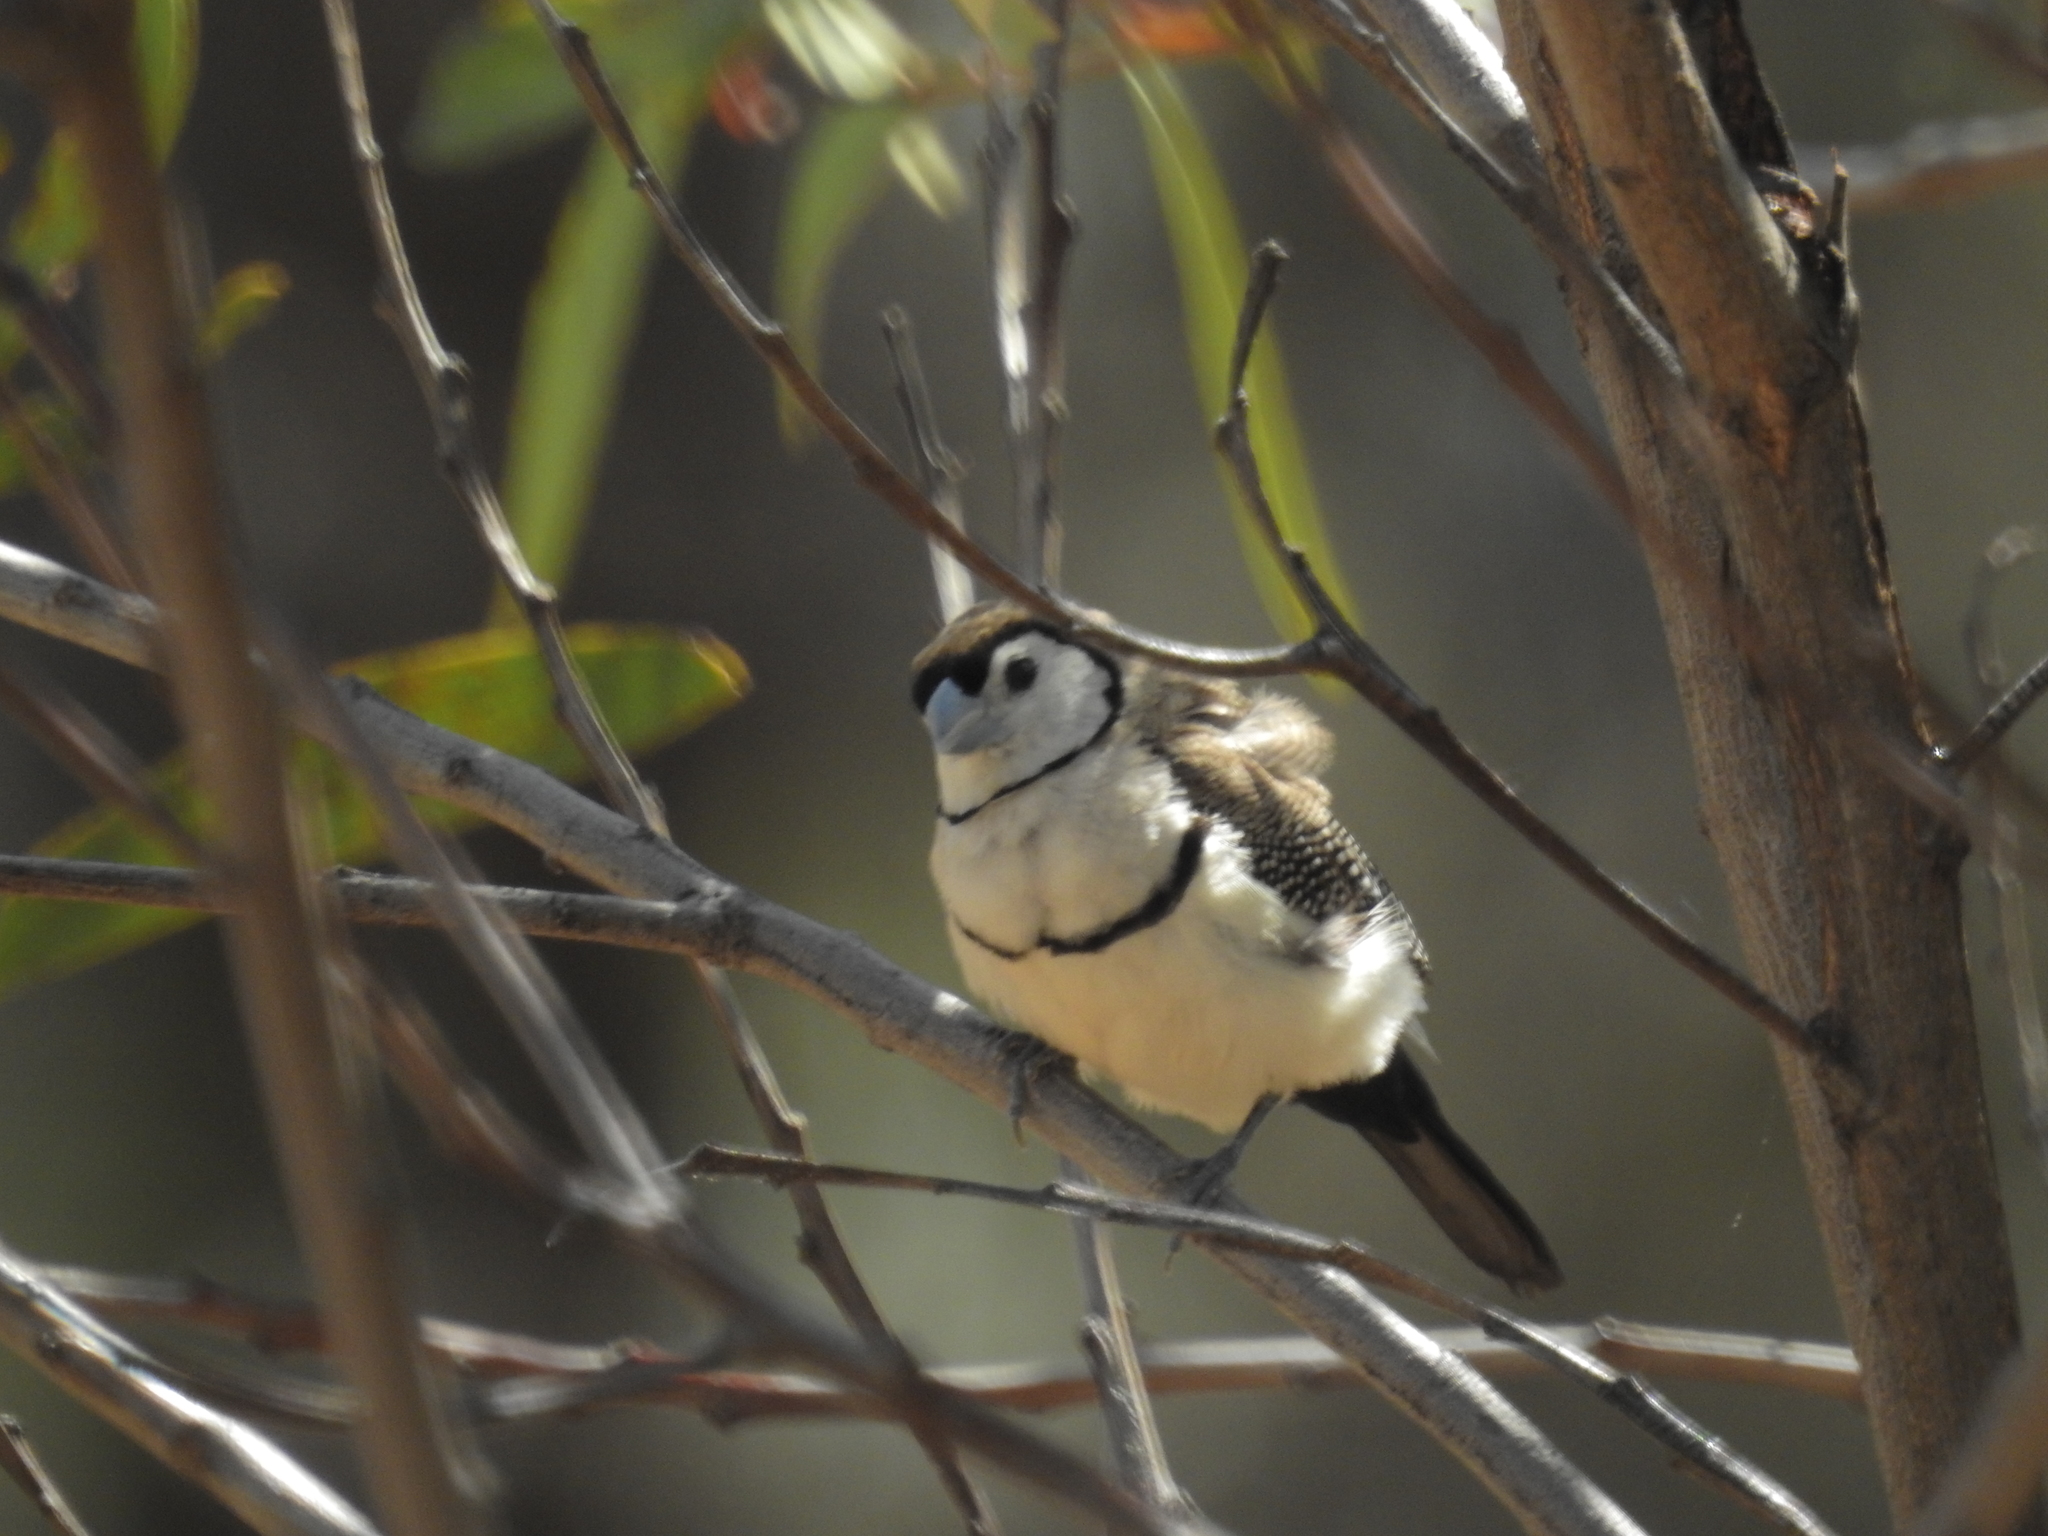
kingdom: Animalia
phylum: Chordata
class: Aves
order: Passeriformes
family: Estrildidae
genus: Taeniopygia
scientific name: Taeniopygia bichenovii
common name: Double-barred finch
